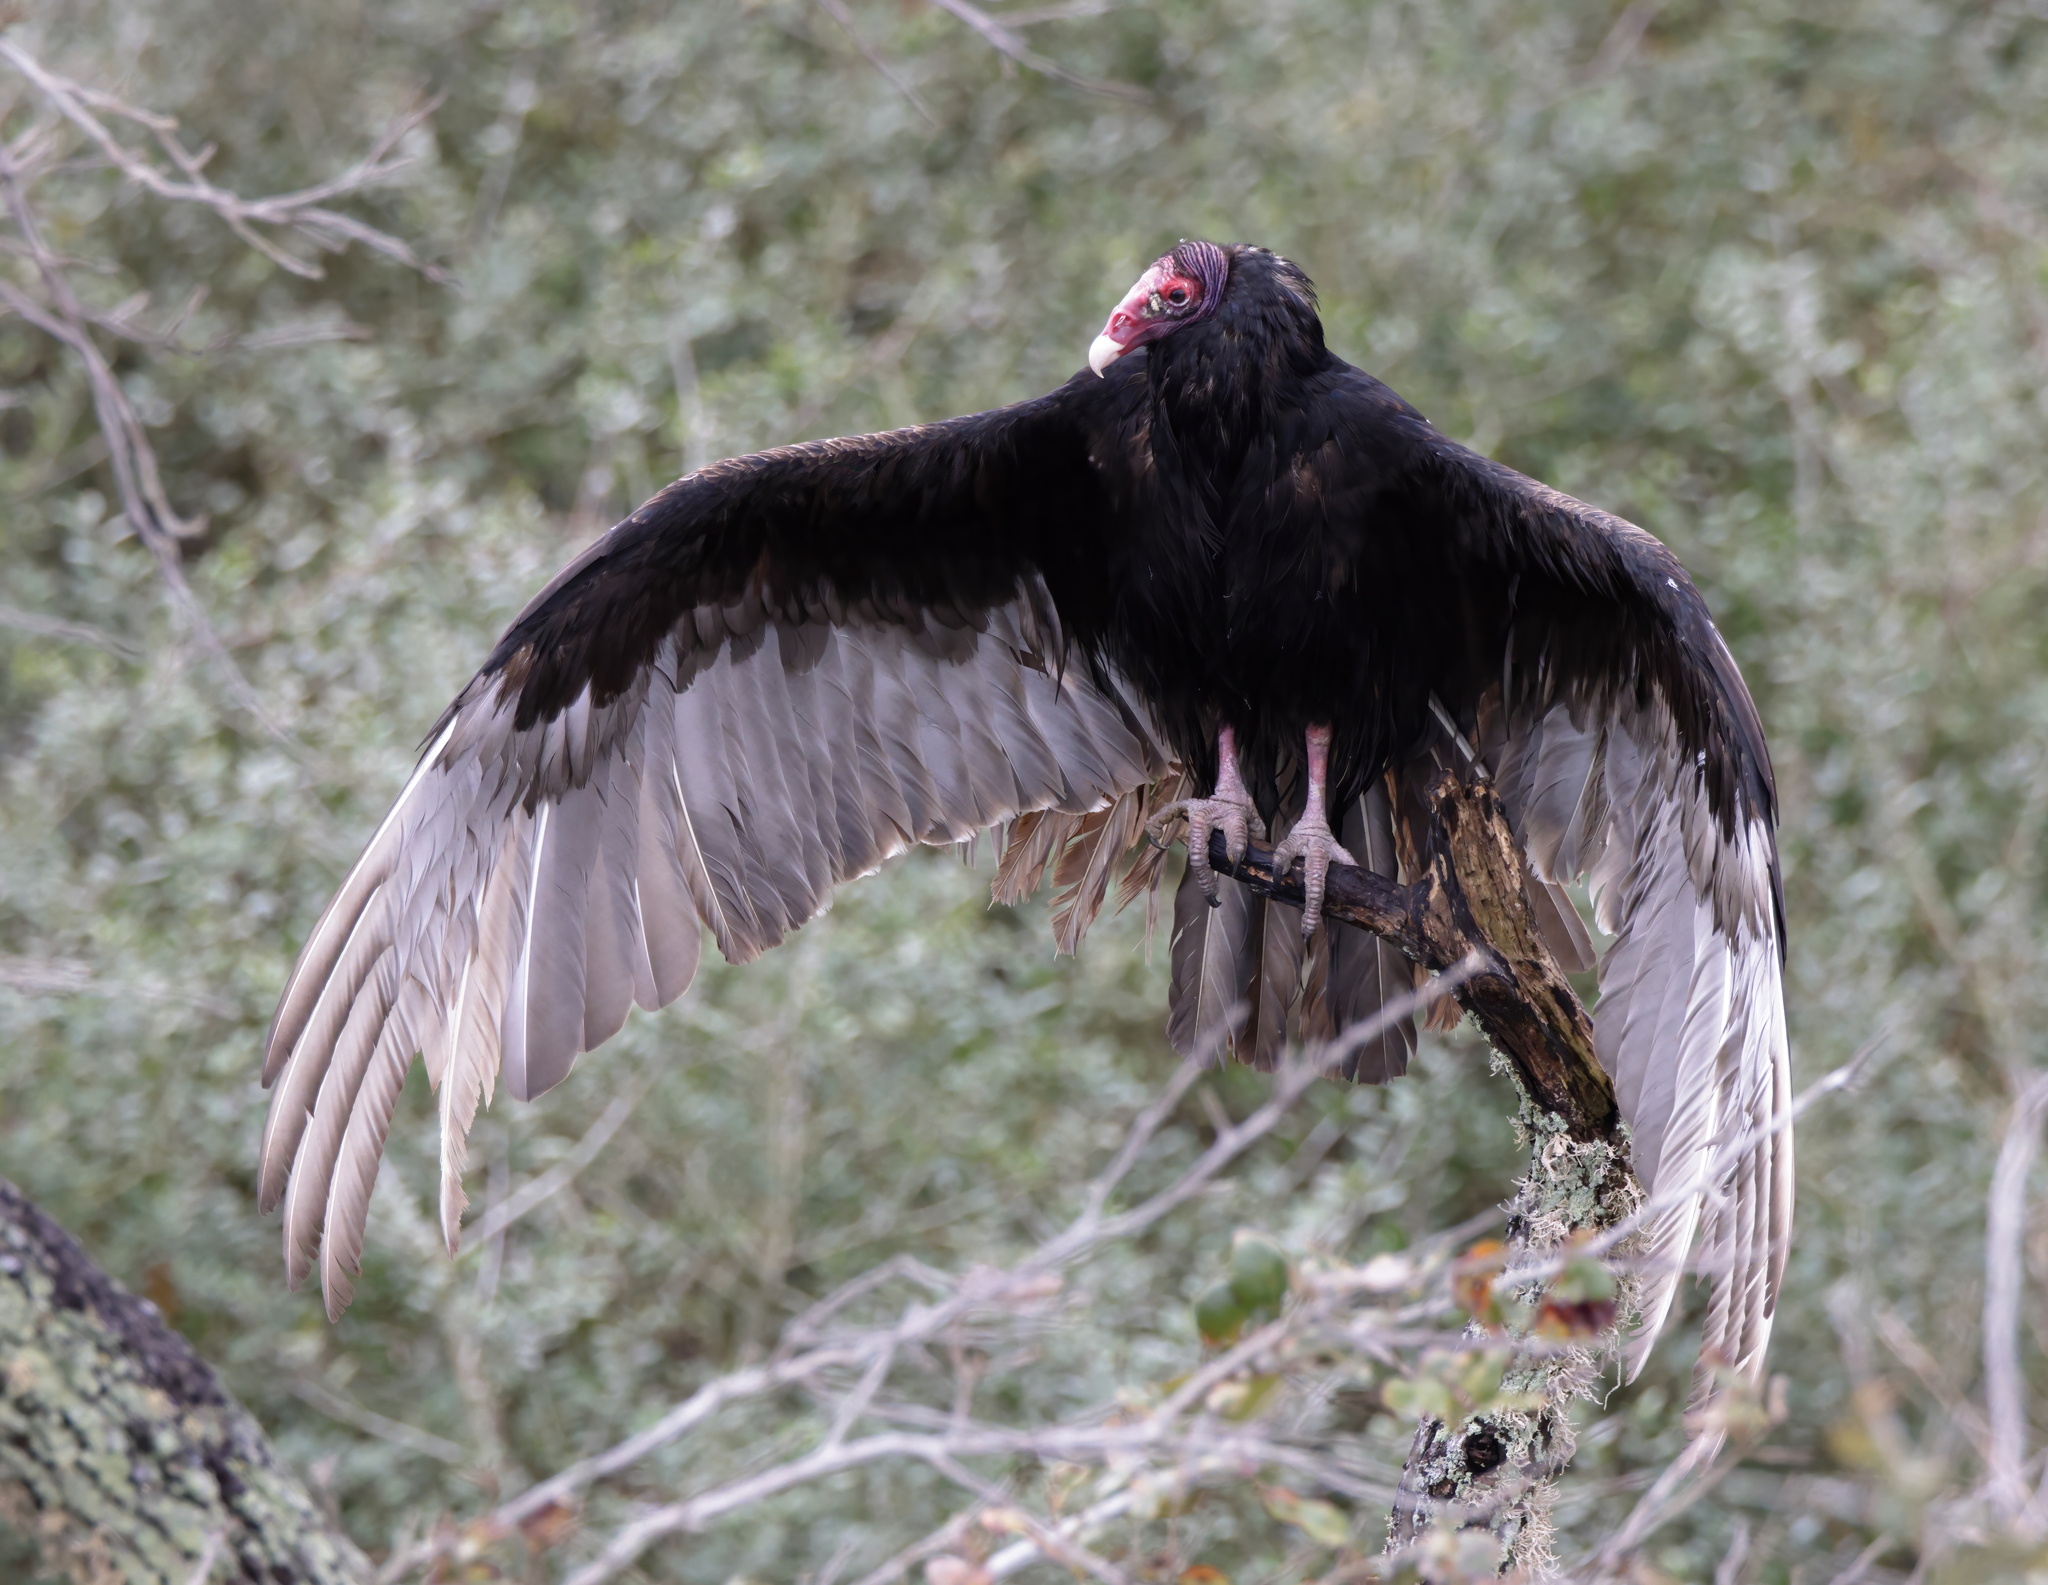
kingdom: Animalia
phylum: Chordata
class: Aves
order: Accipitriformes
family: Cathartidae
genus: Cathartes
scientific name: Cathartes aura
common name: Turkey vulture
